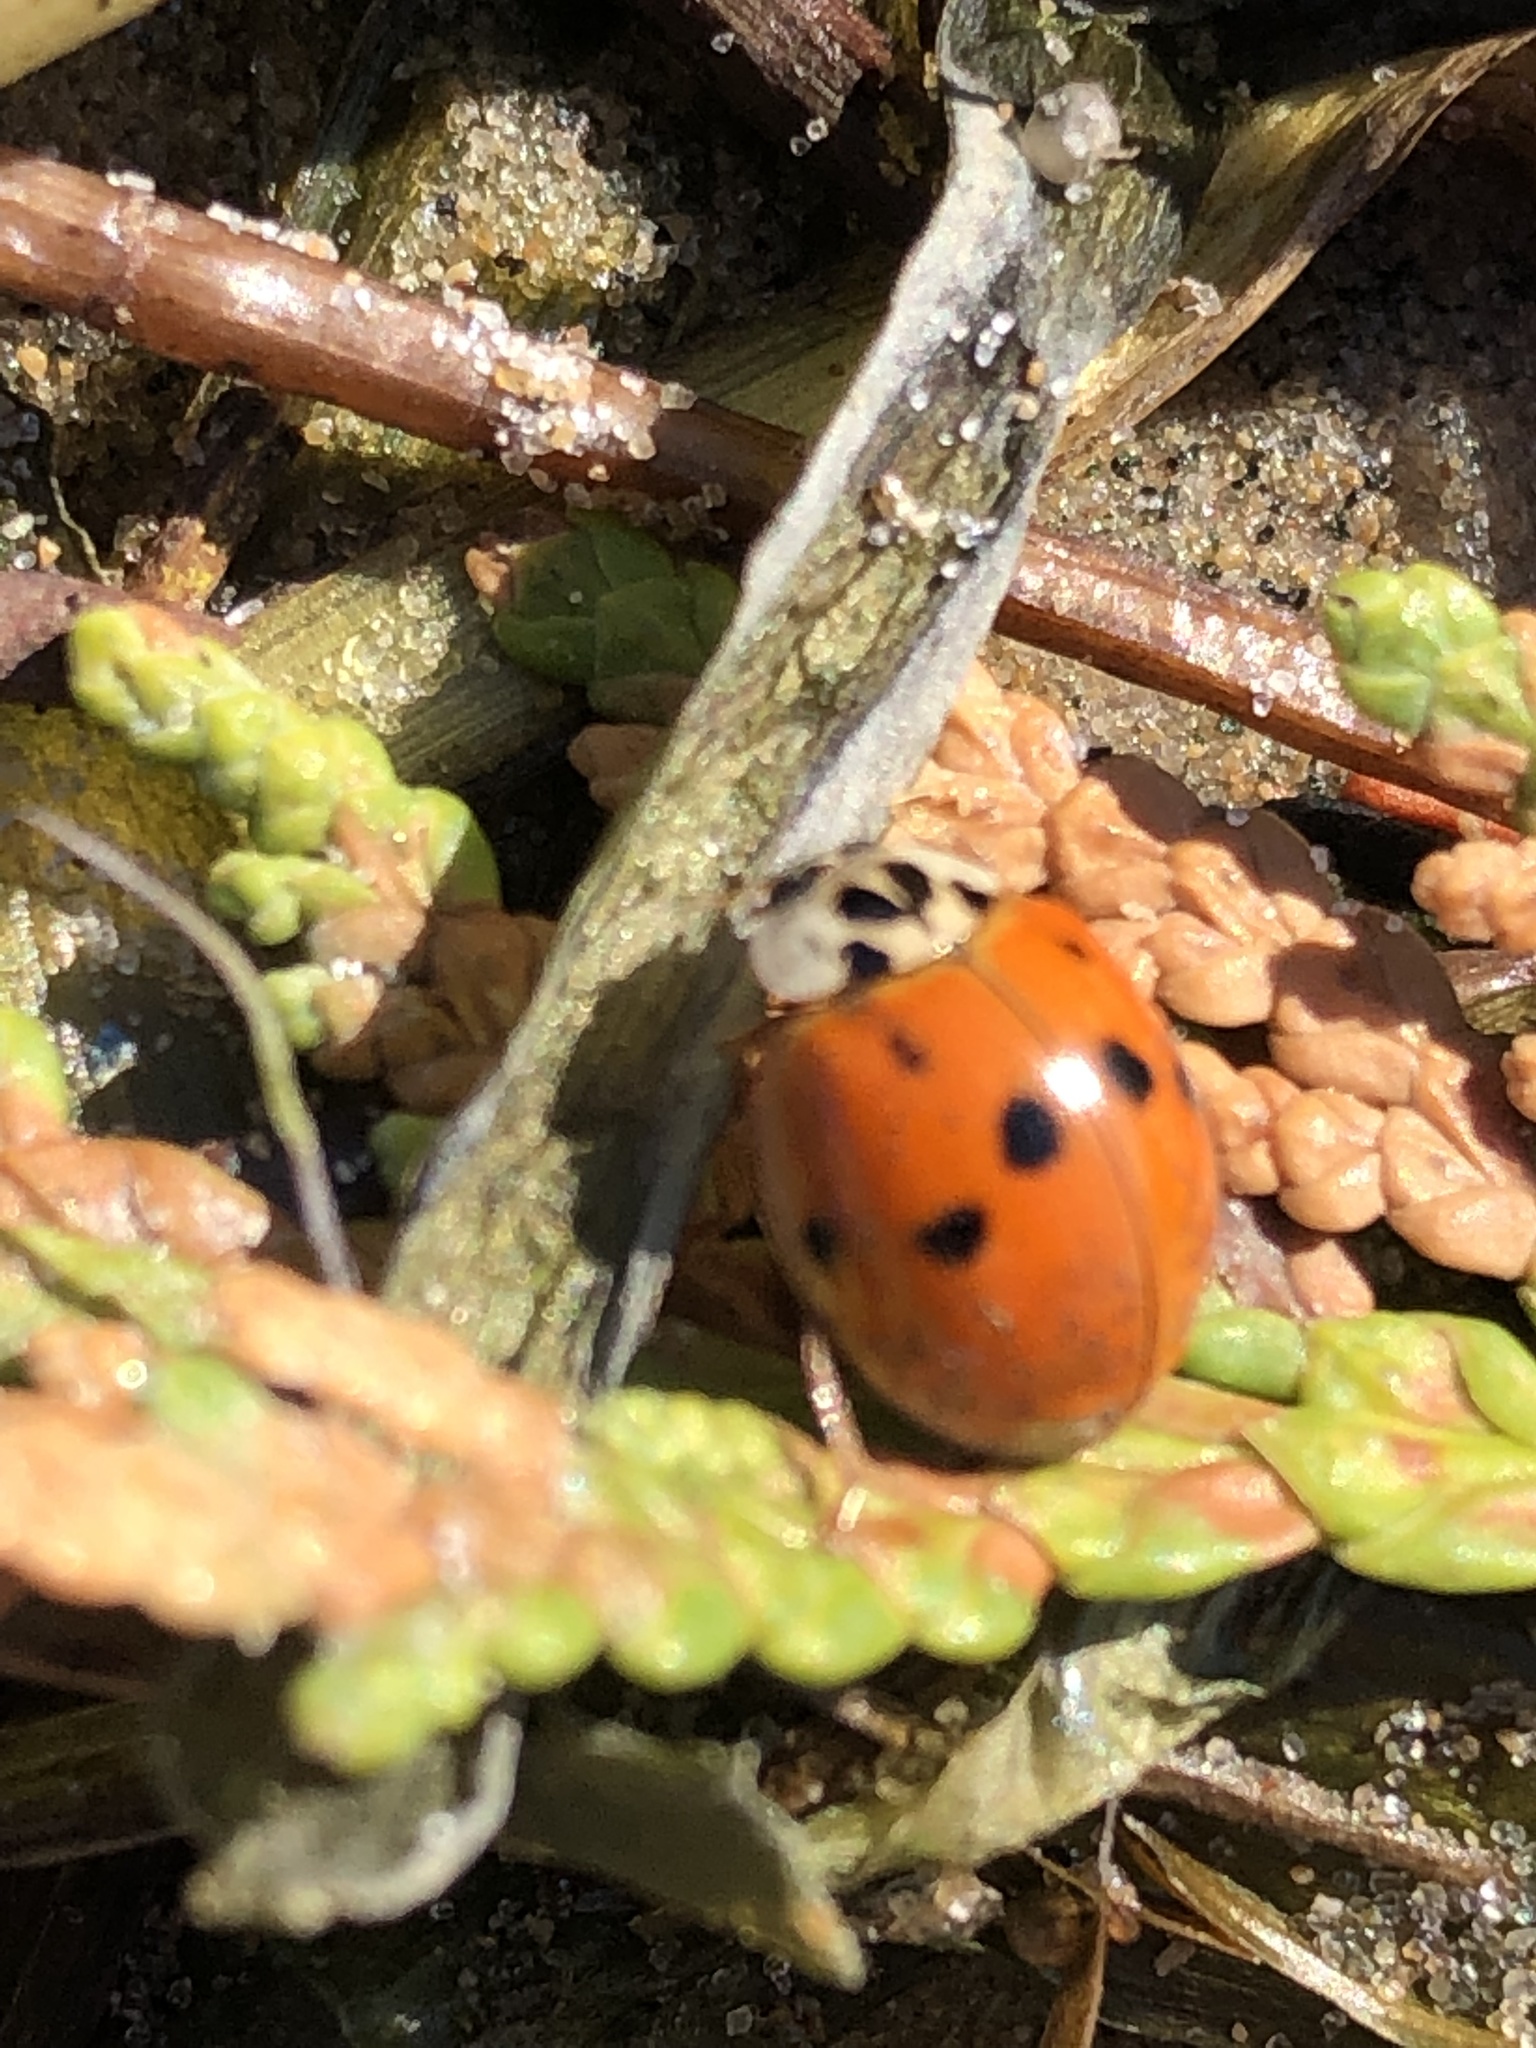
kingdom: Animalia
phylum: Arthropoda
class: Insecta
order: Coleoptera
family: Coccinellidae
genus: Harmonia
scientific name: Harmonia axyridis
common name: Harlequin ladybird
